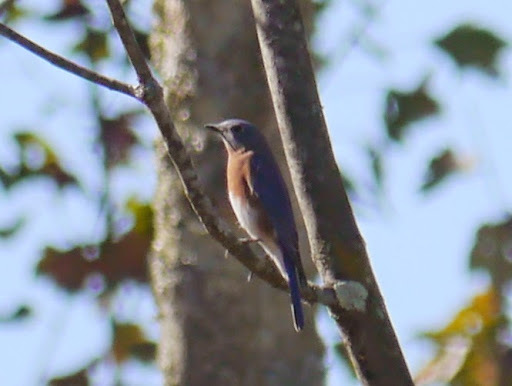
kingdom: Animalia
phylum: Chordata
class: Aves
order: Passeriformes
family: Turdidae
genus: Sialia
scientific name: Sialia sialis
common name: Eastern bluebird
